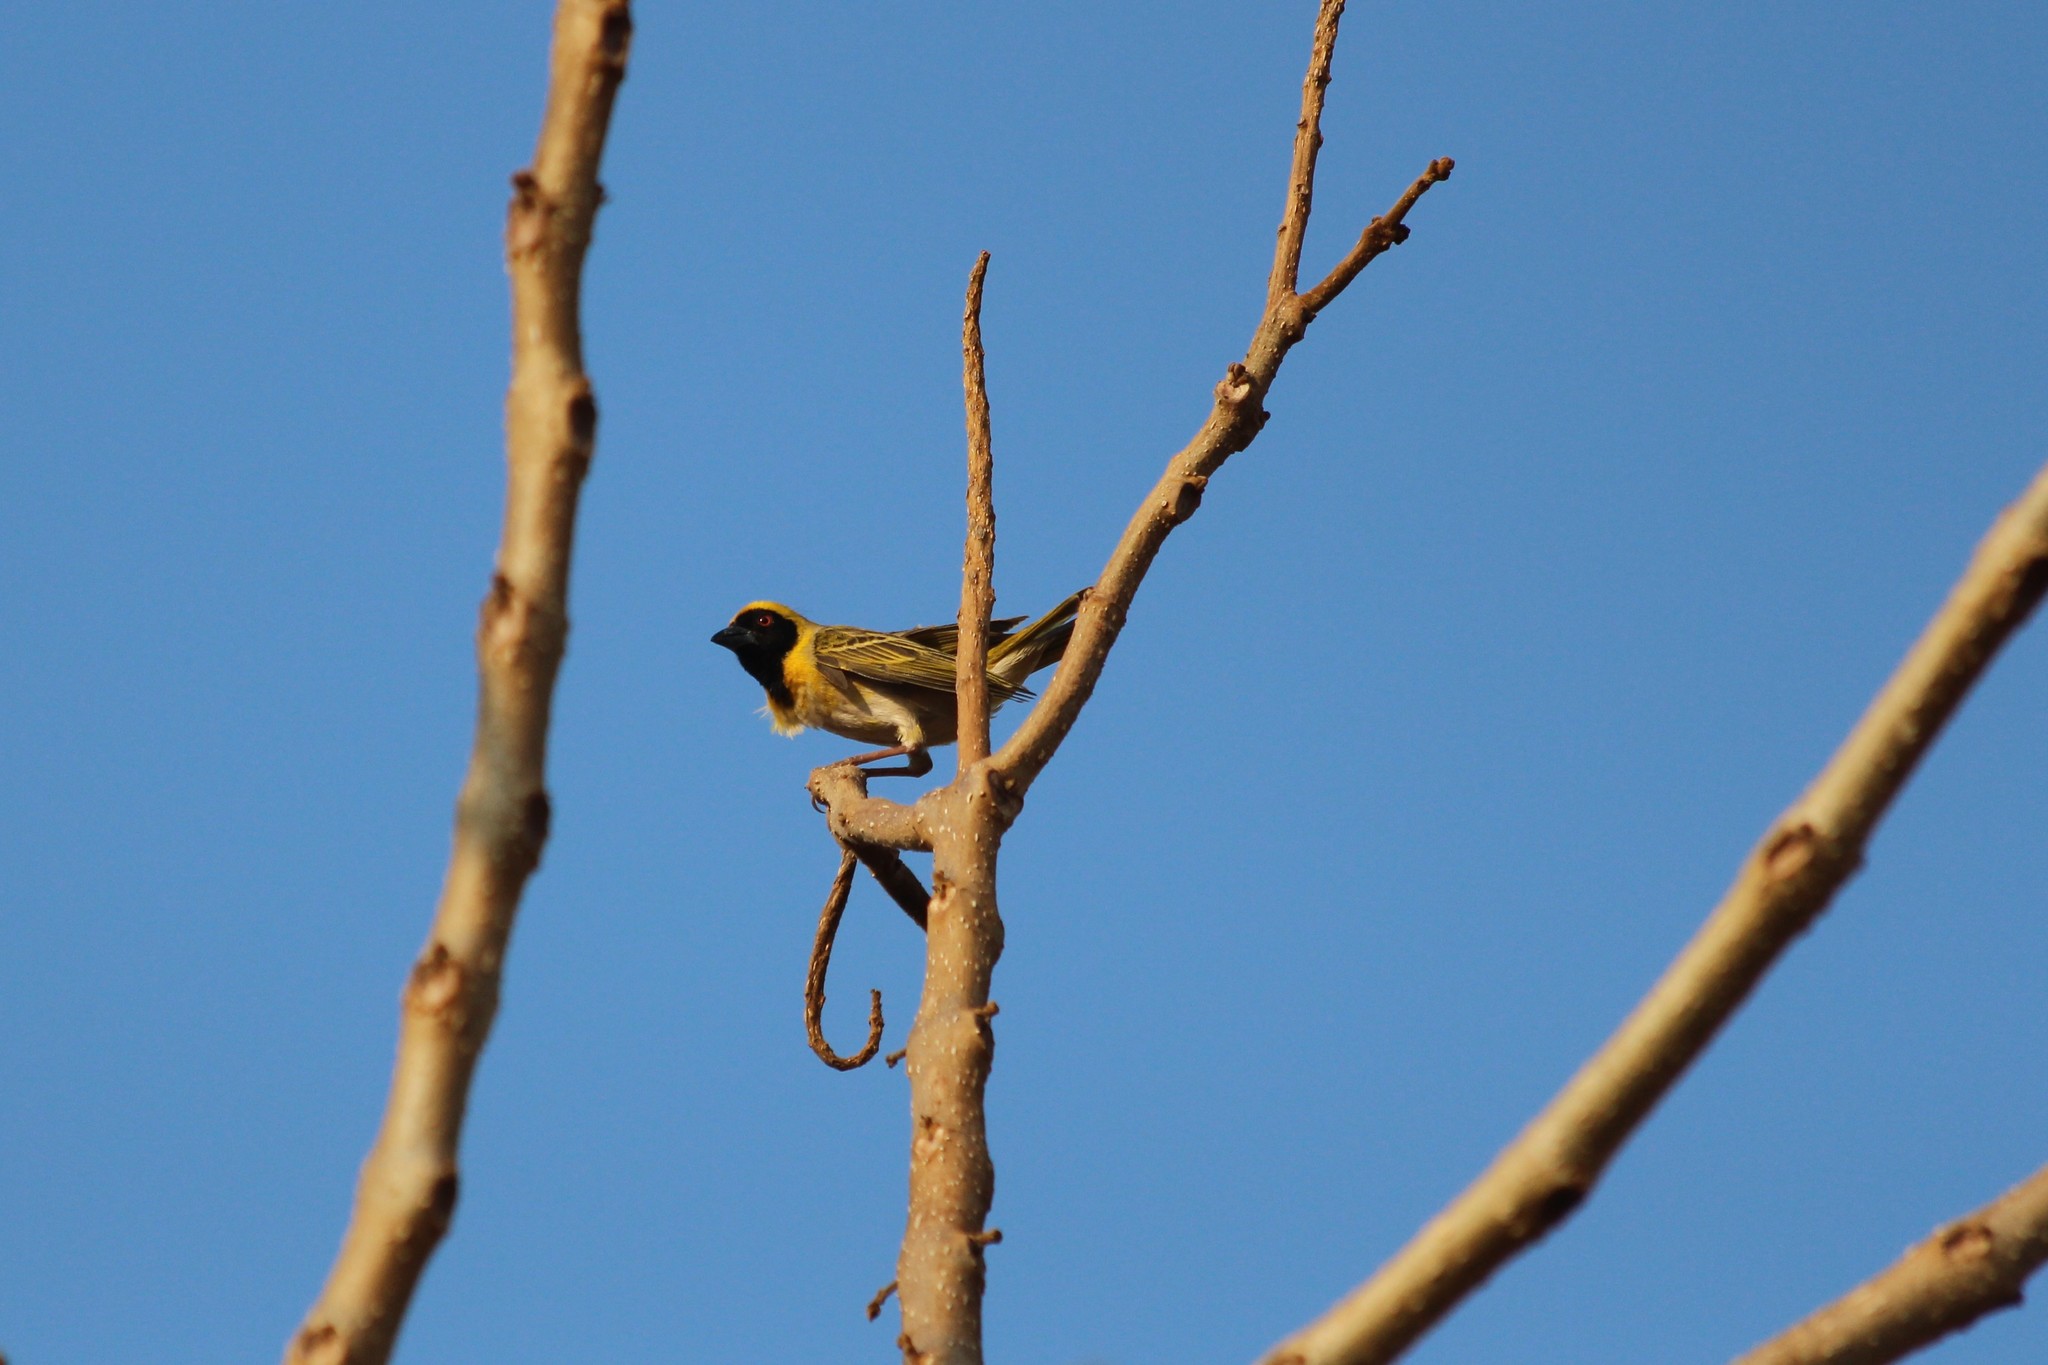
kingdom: Animalia
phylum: Chordata
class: Aves
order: Passeriformes
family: Ploceidae
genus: Ploceus
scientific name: Ploceus velatus
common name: Southern masked weaver
